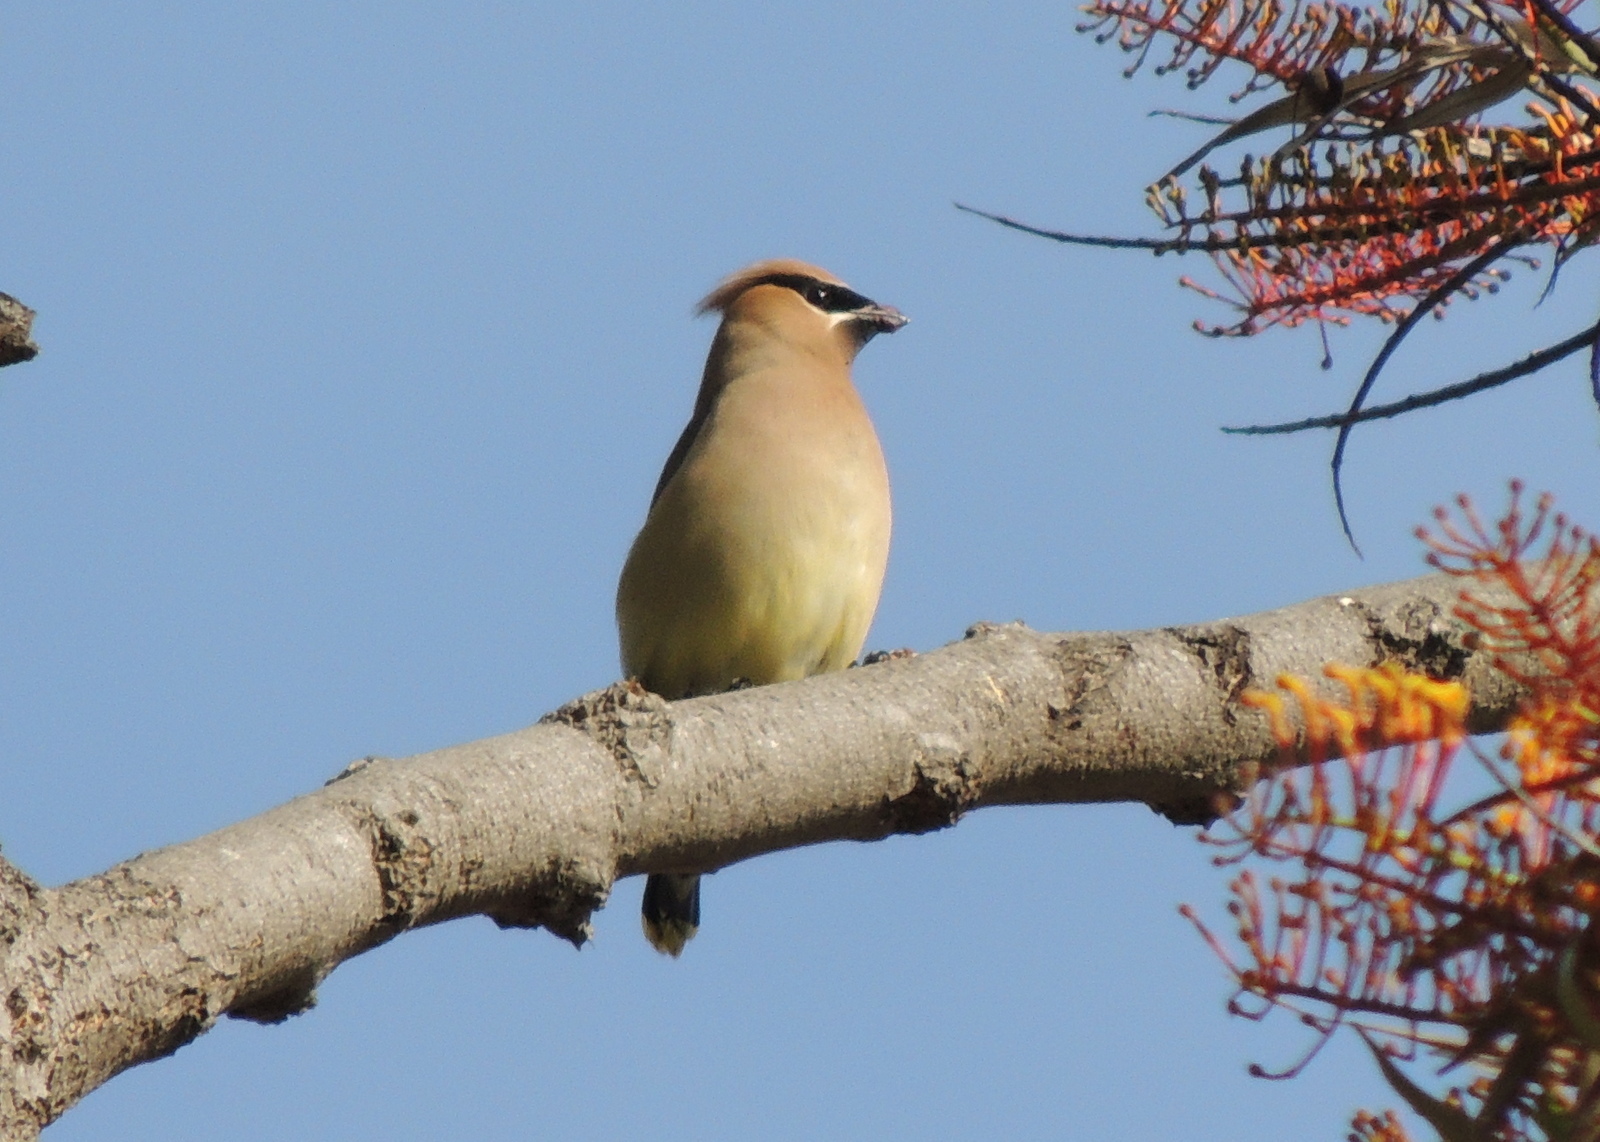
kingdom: Animalia
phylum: Chordata
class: Aves
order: Passeriformes
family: Bombycillidae
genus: Bombycilla
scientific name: Bombycilla cedrorum
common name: Cedar waxwing
